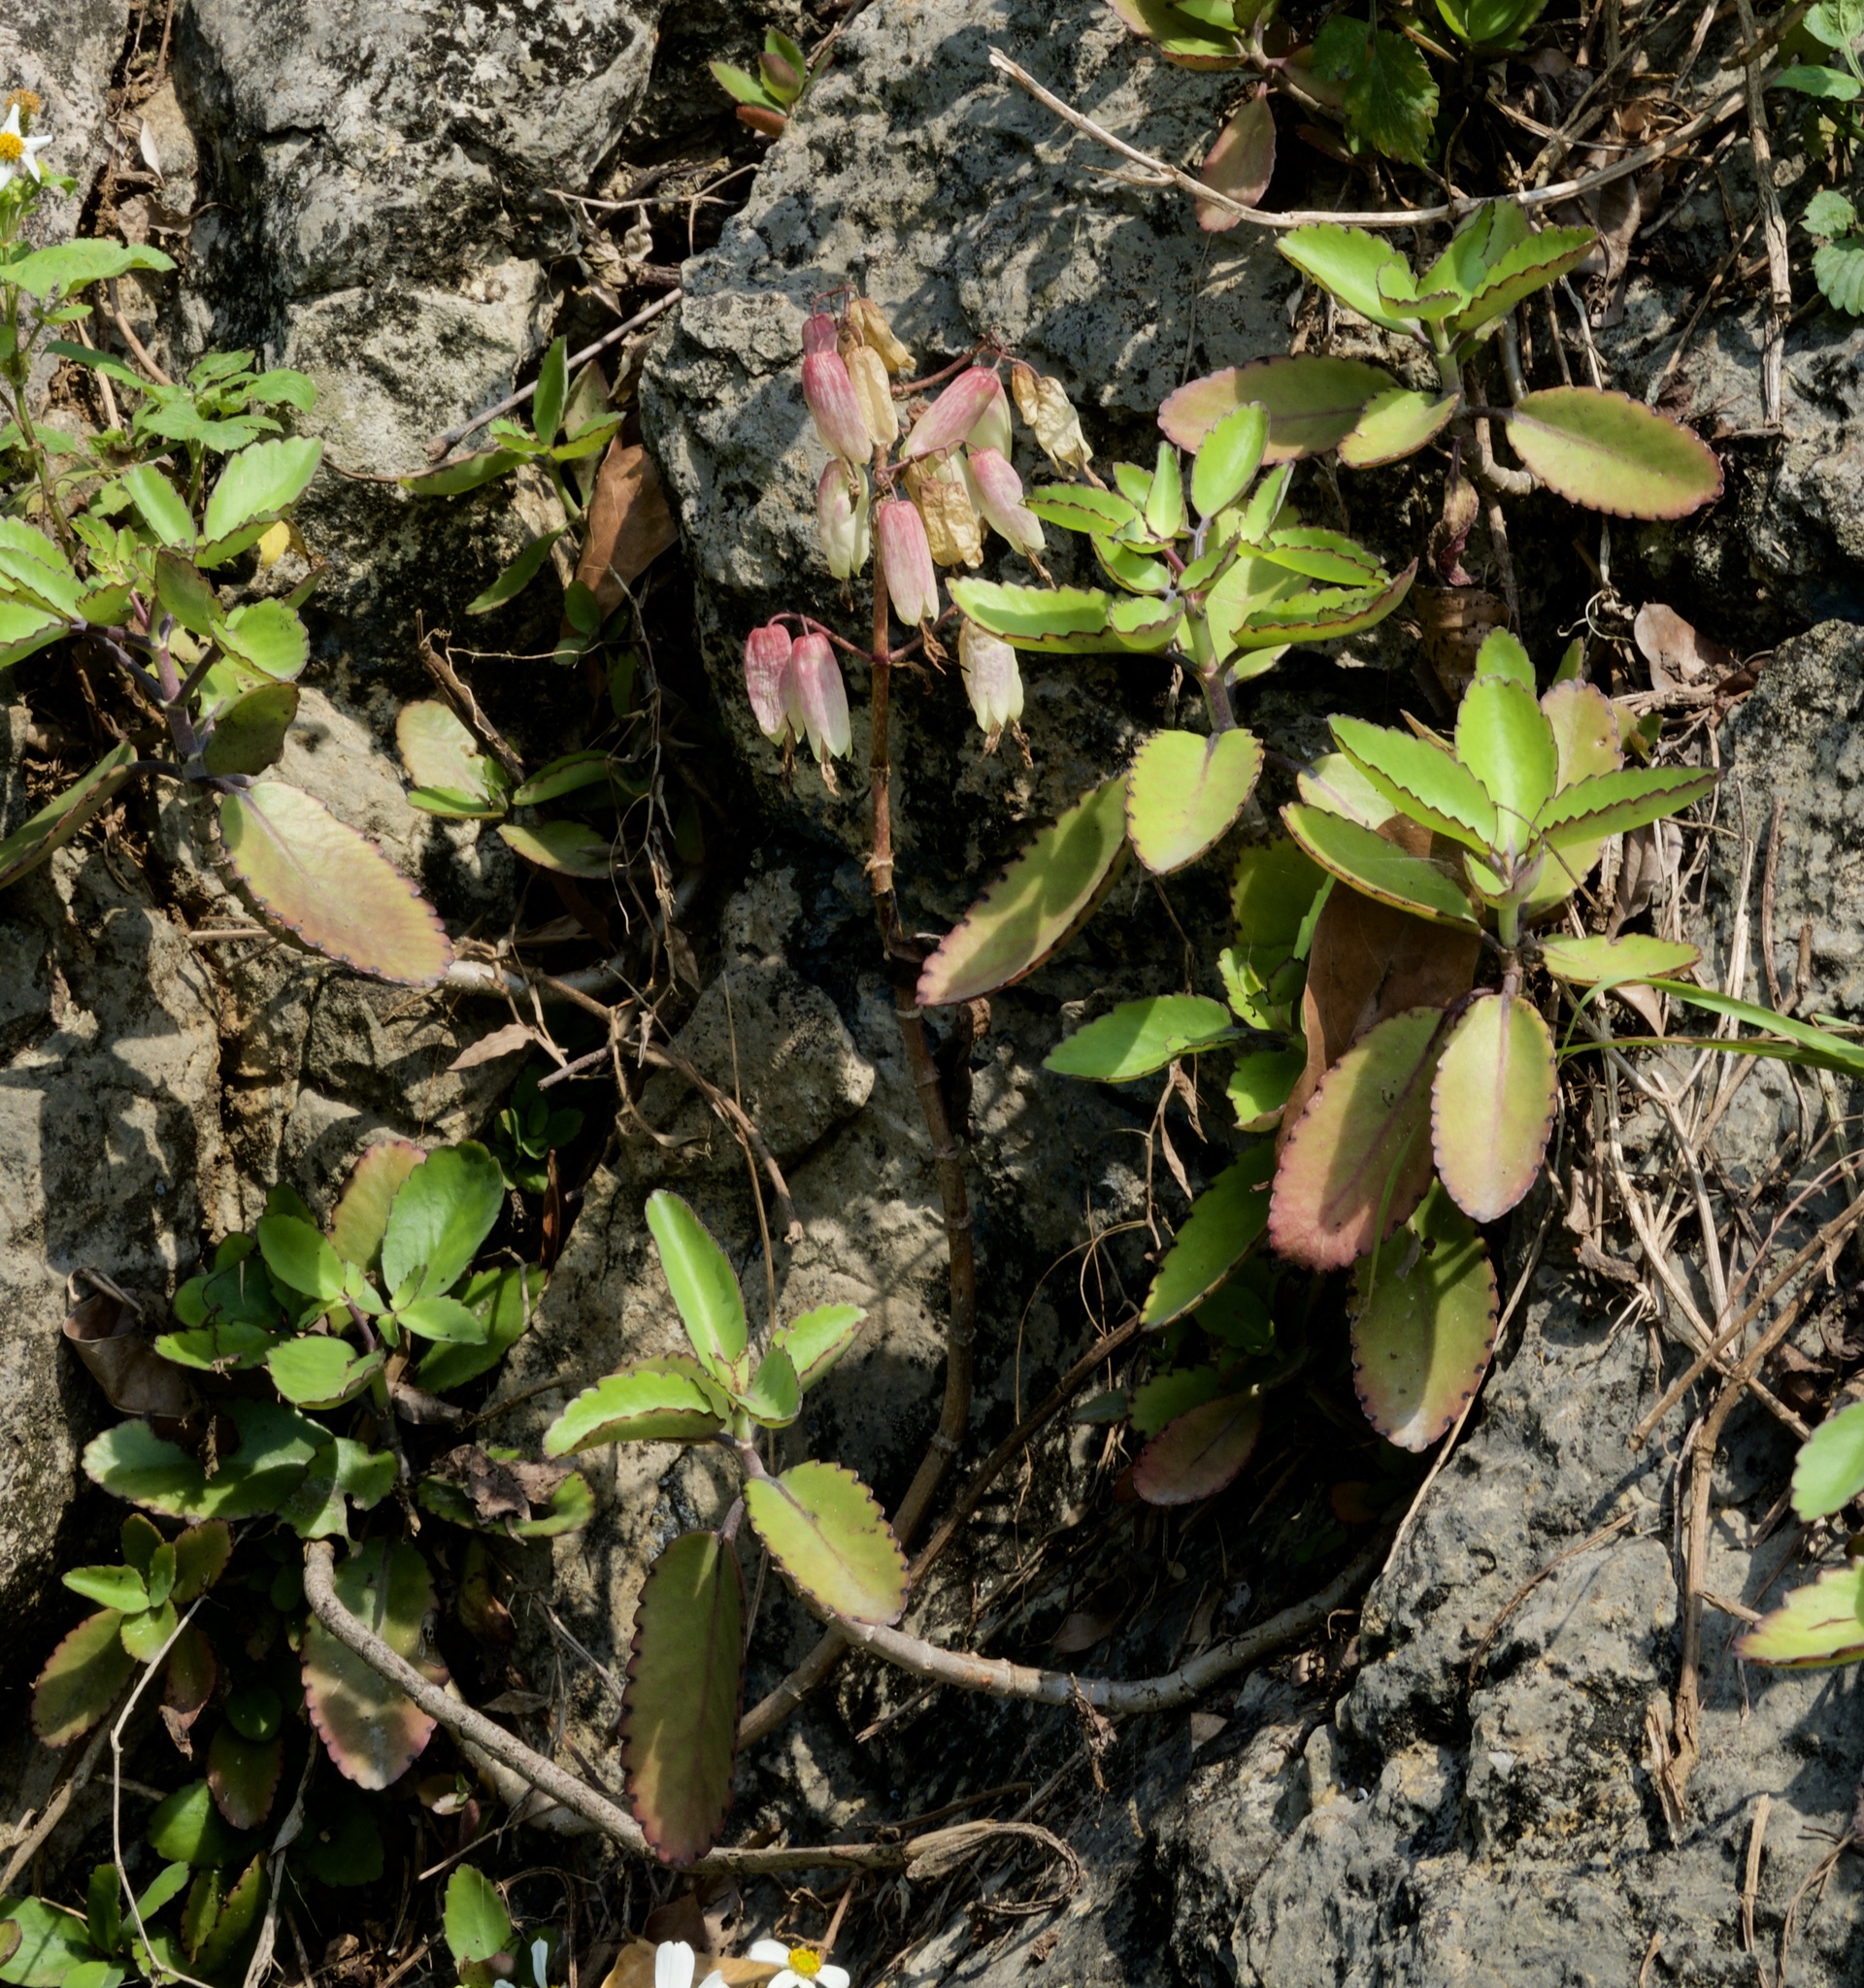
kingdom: Plantae
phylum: Tracheophyta
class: Magnoliopsida
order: Saxifragales
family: Crassulaceae
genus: Kalanchoe
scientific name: Kalanchoe pinnata
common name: Cathedral bells
